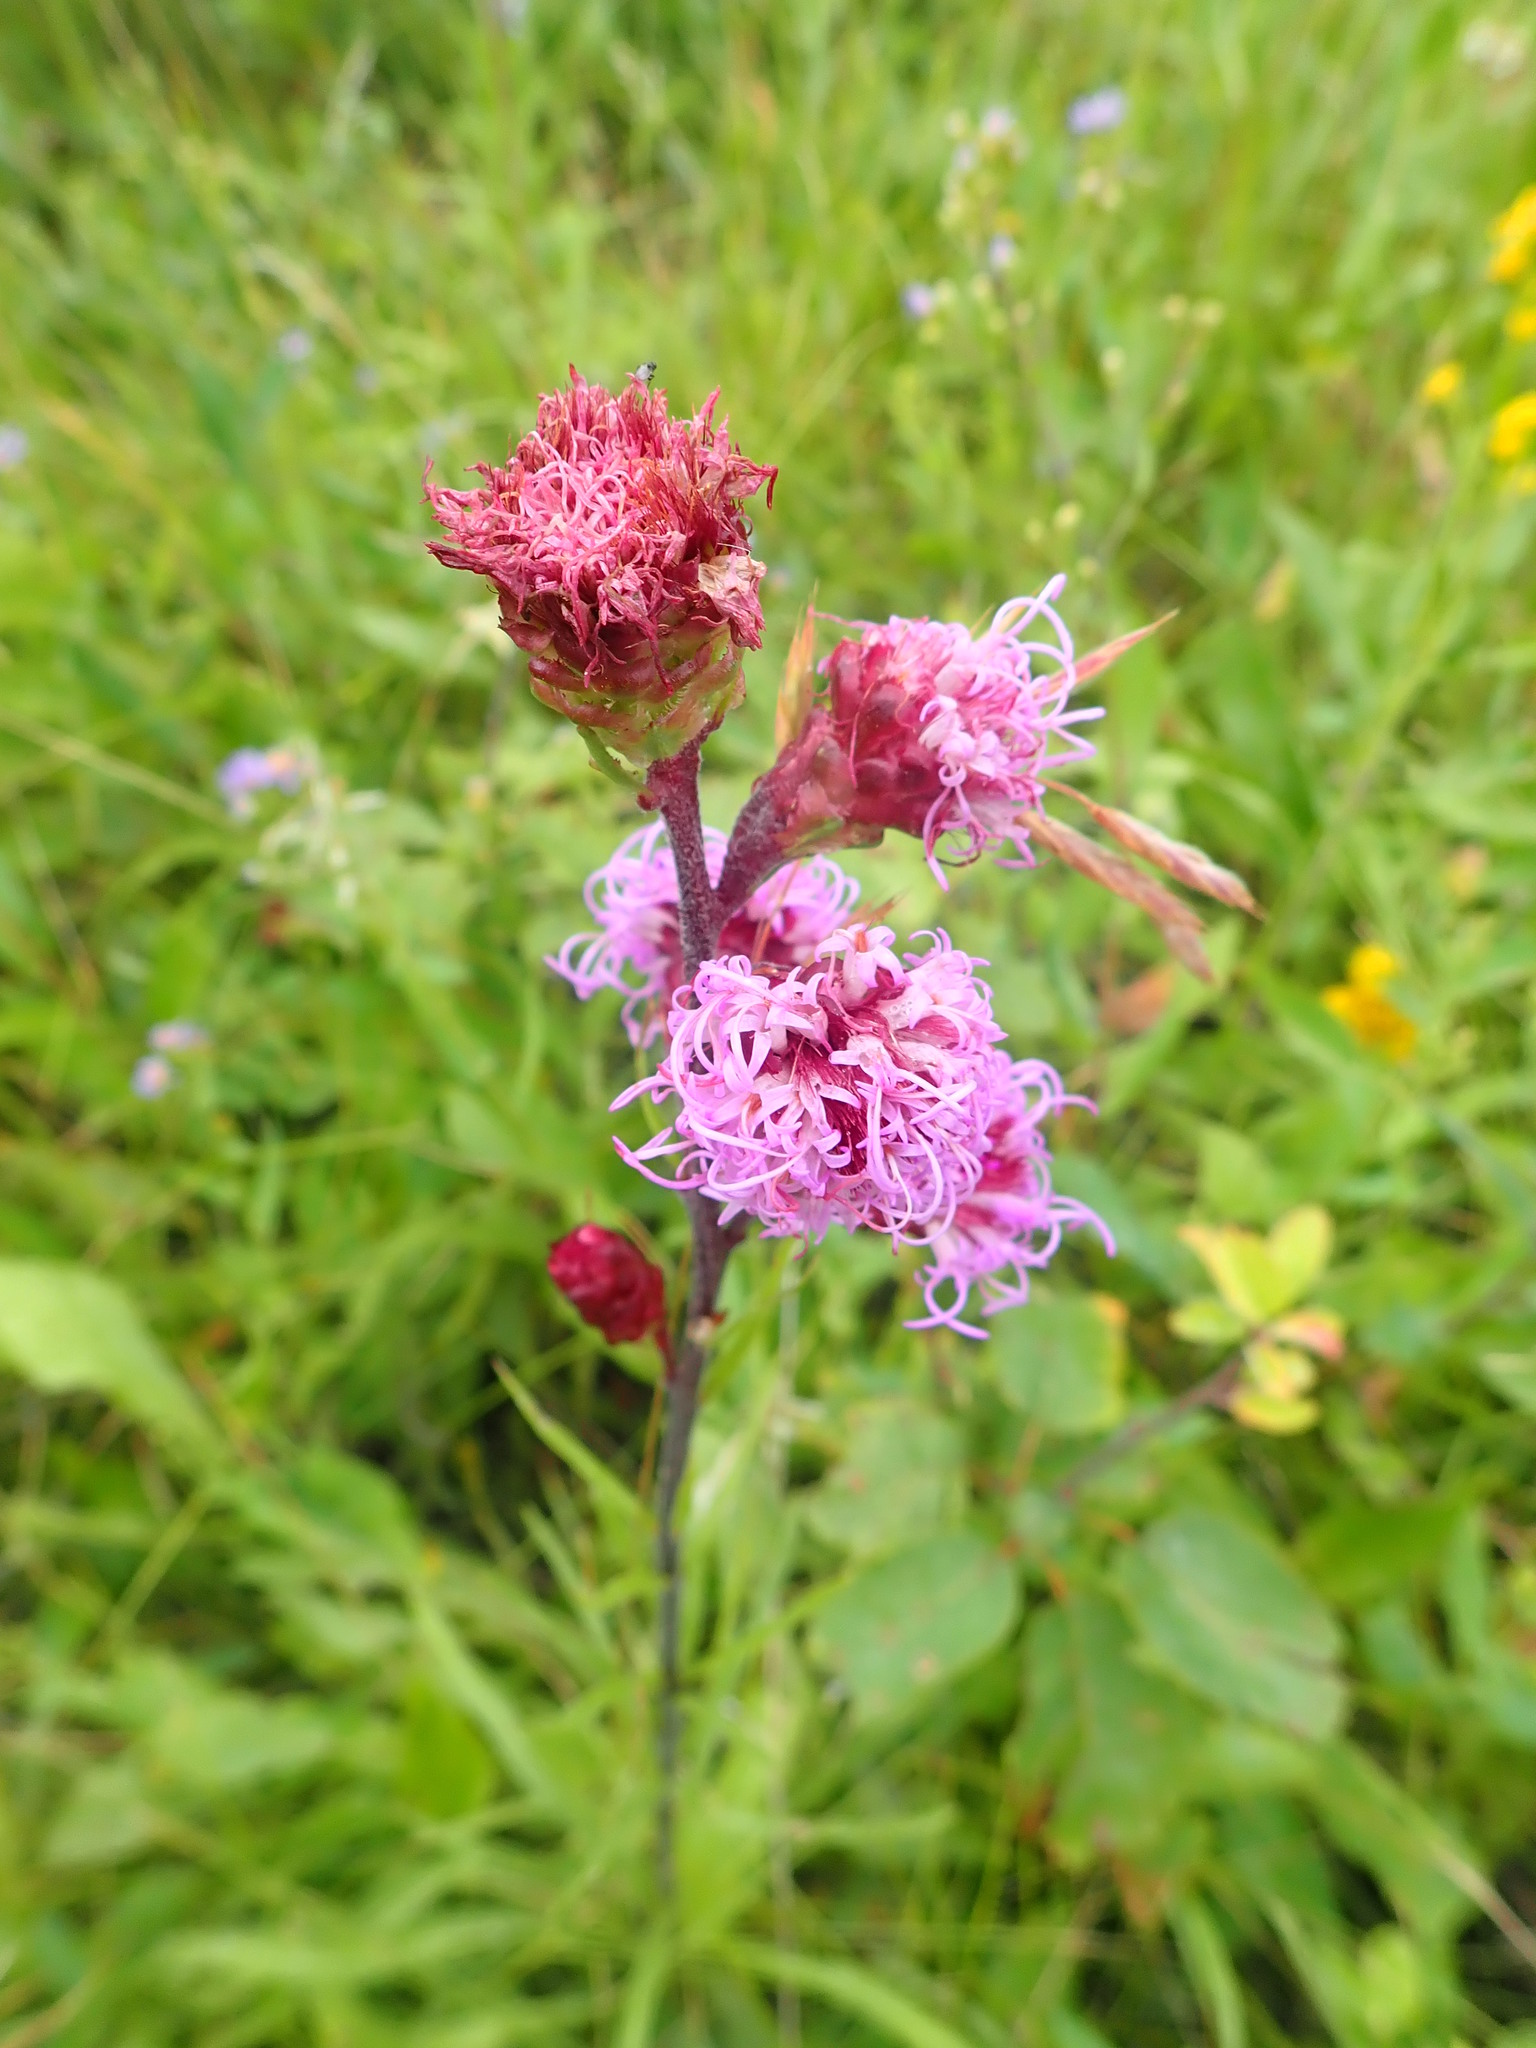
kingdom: Plantae
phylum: Tracheophyta
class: Magnoliopsida
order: Asterales
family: Asteraceae
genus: Liatris
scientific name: Liatris ligulistylis
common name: Northern plains gayfeather
